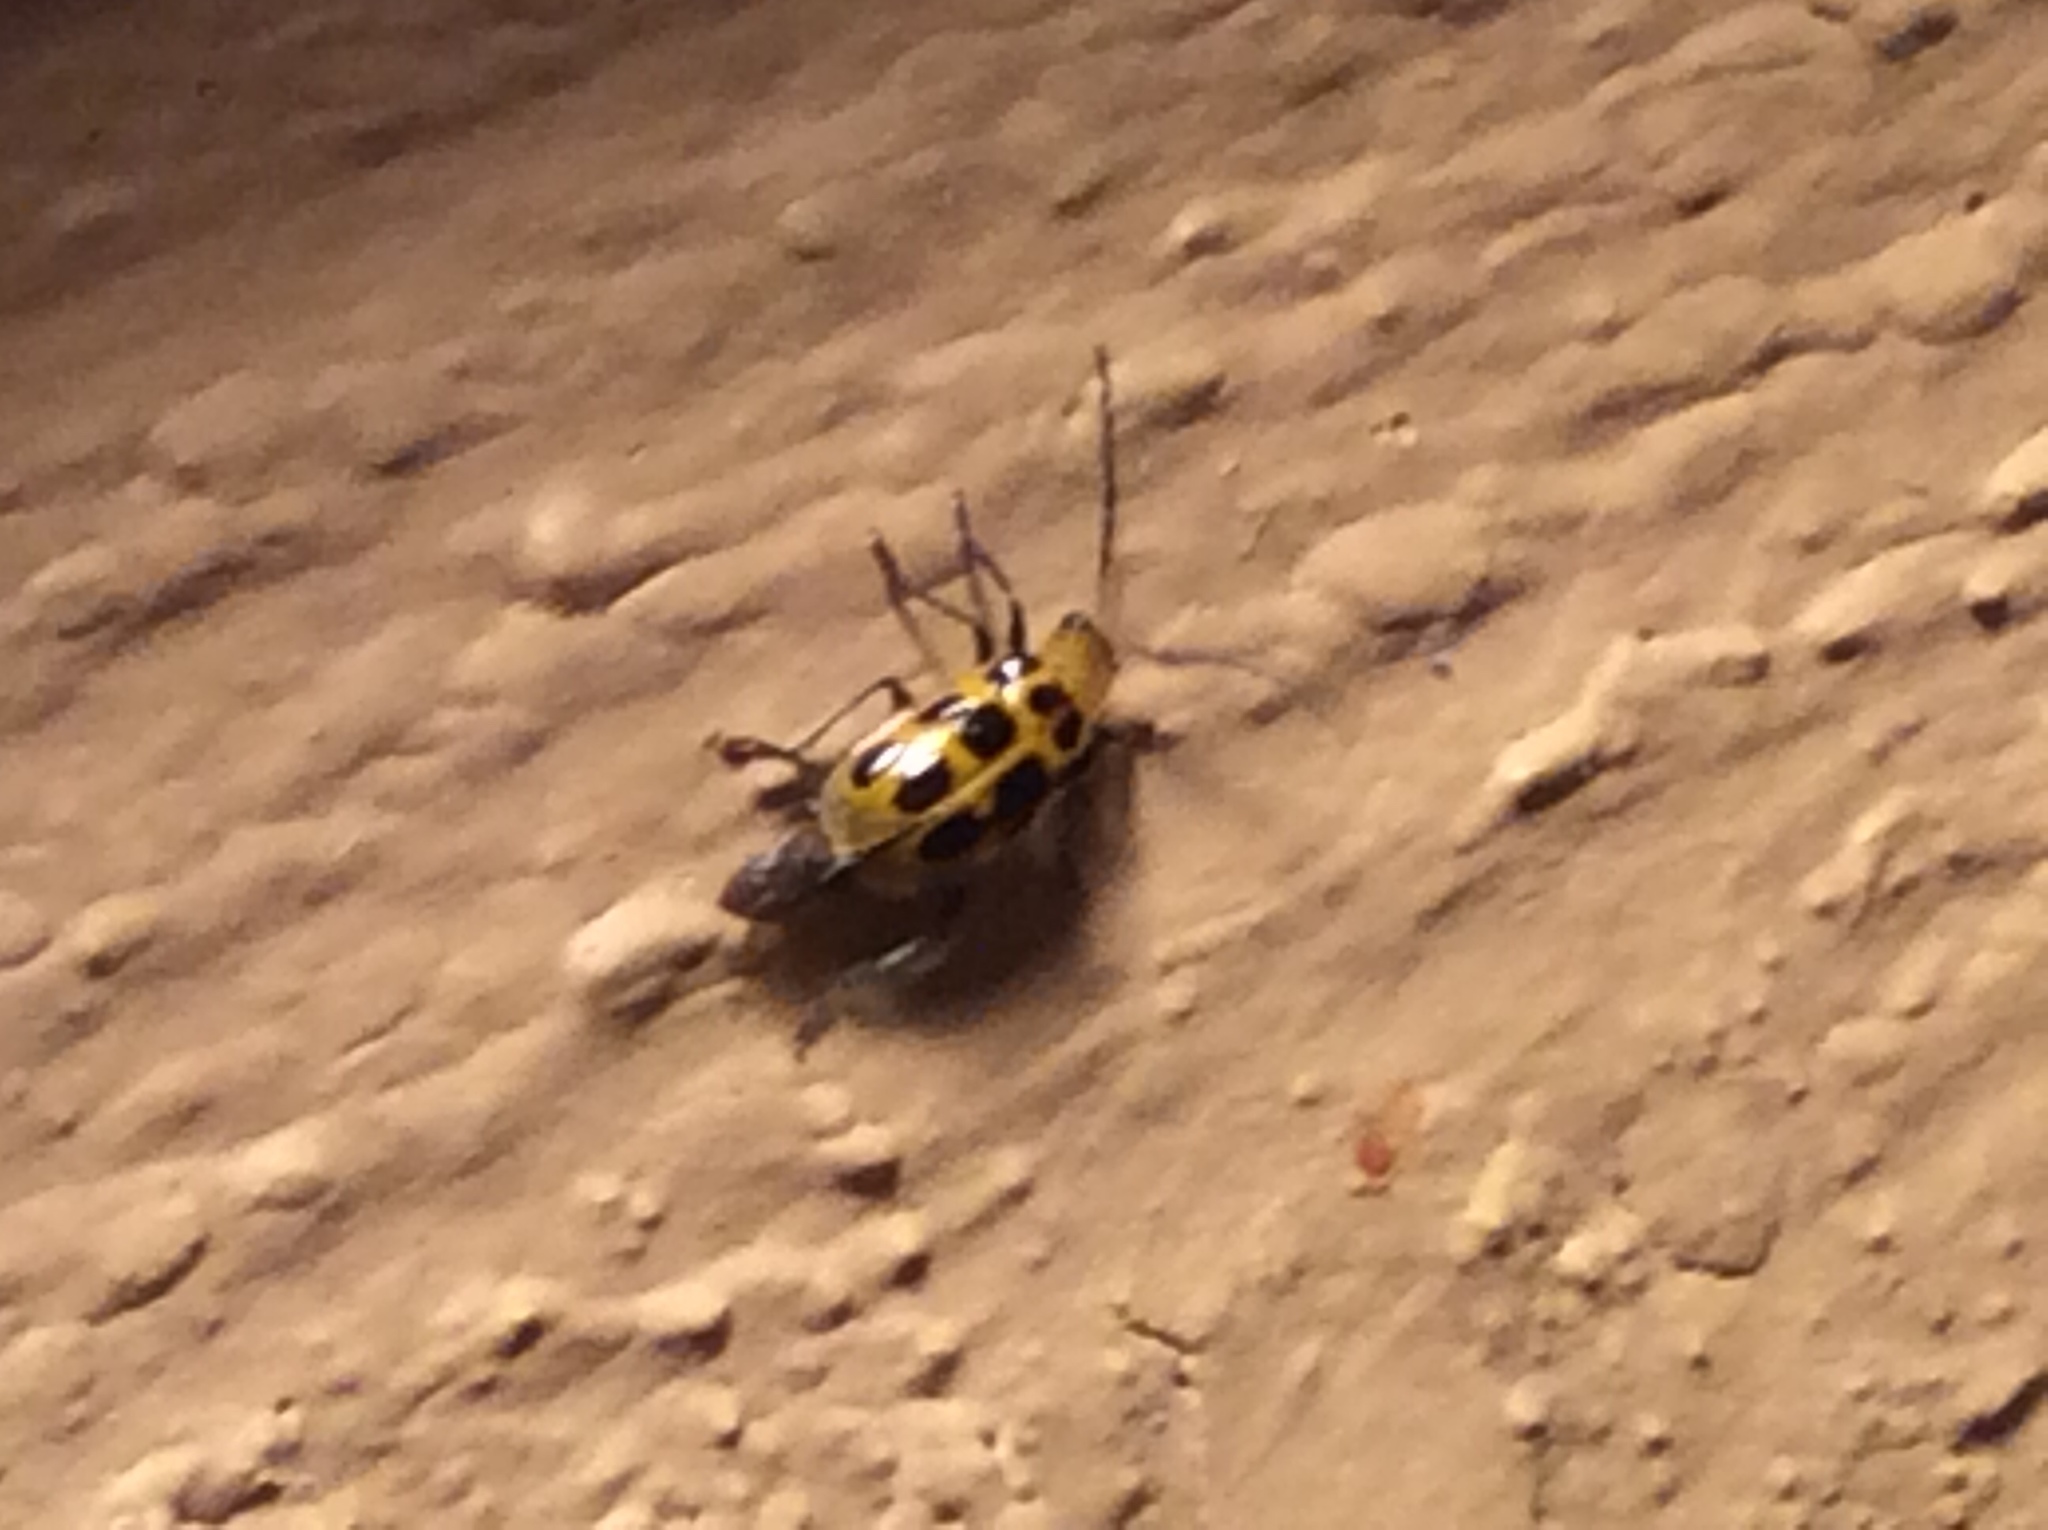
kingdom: Animalia
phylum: Arthropoda
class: Insecta
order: Coleoptera
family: Chrysomelidae
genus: Diabrotica
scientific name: Diabrotica undecimpunctata
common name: Spotted cucumber beetle
